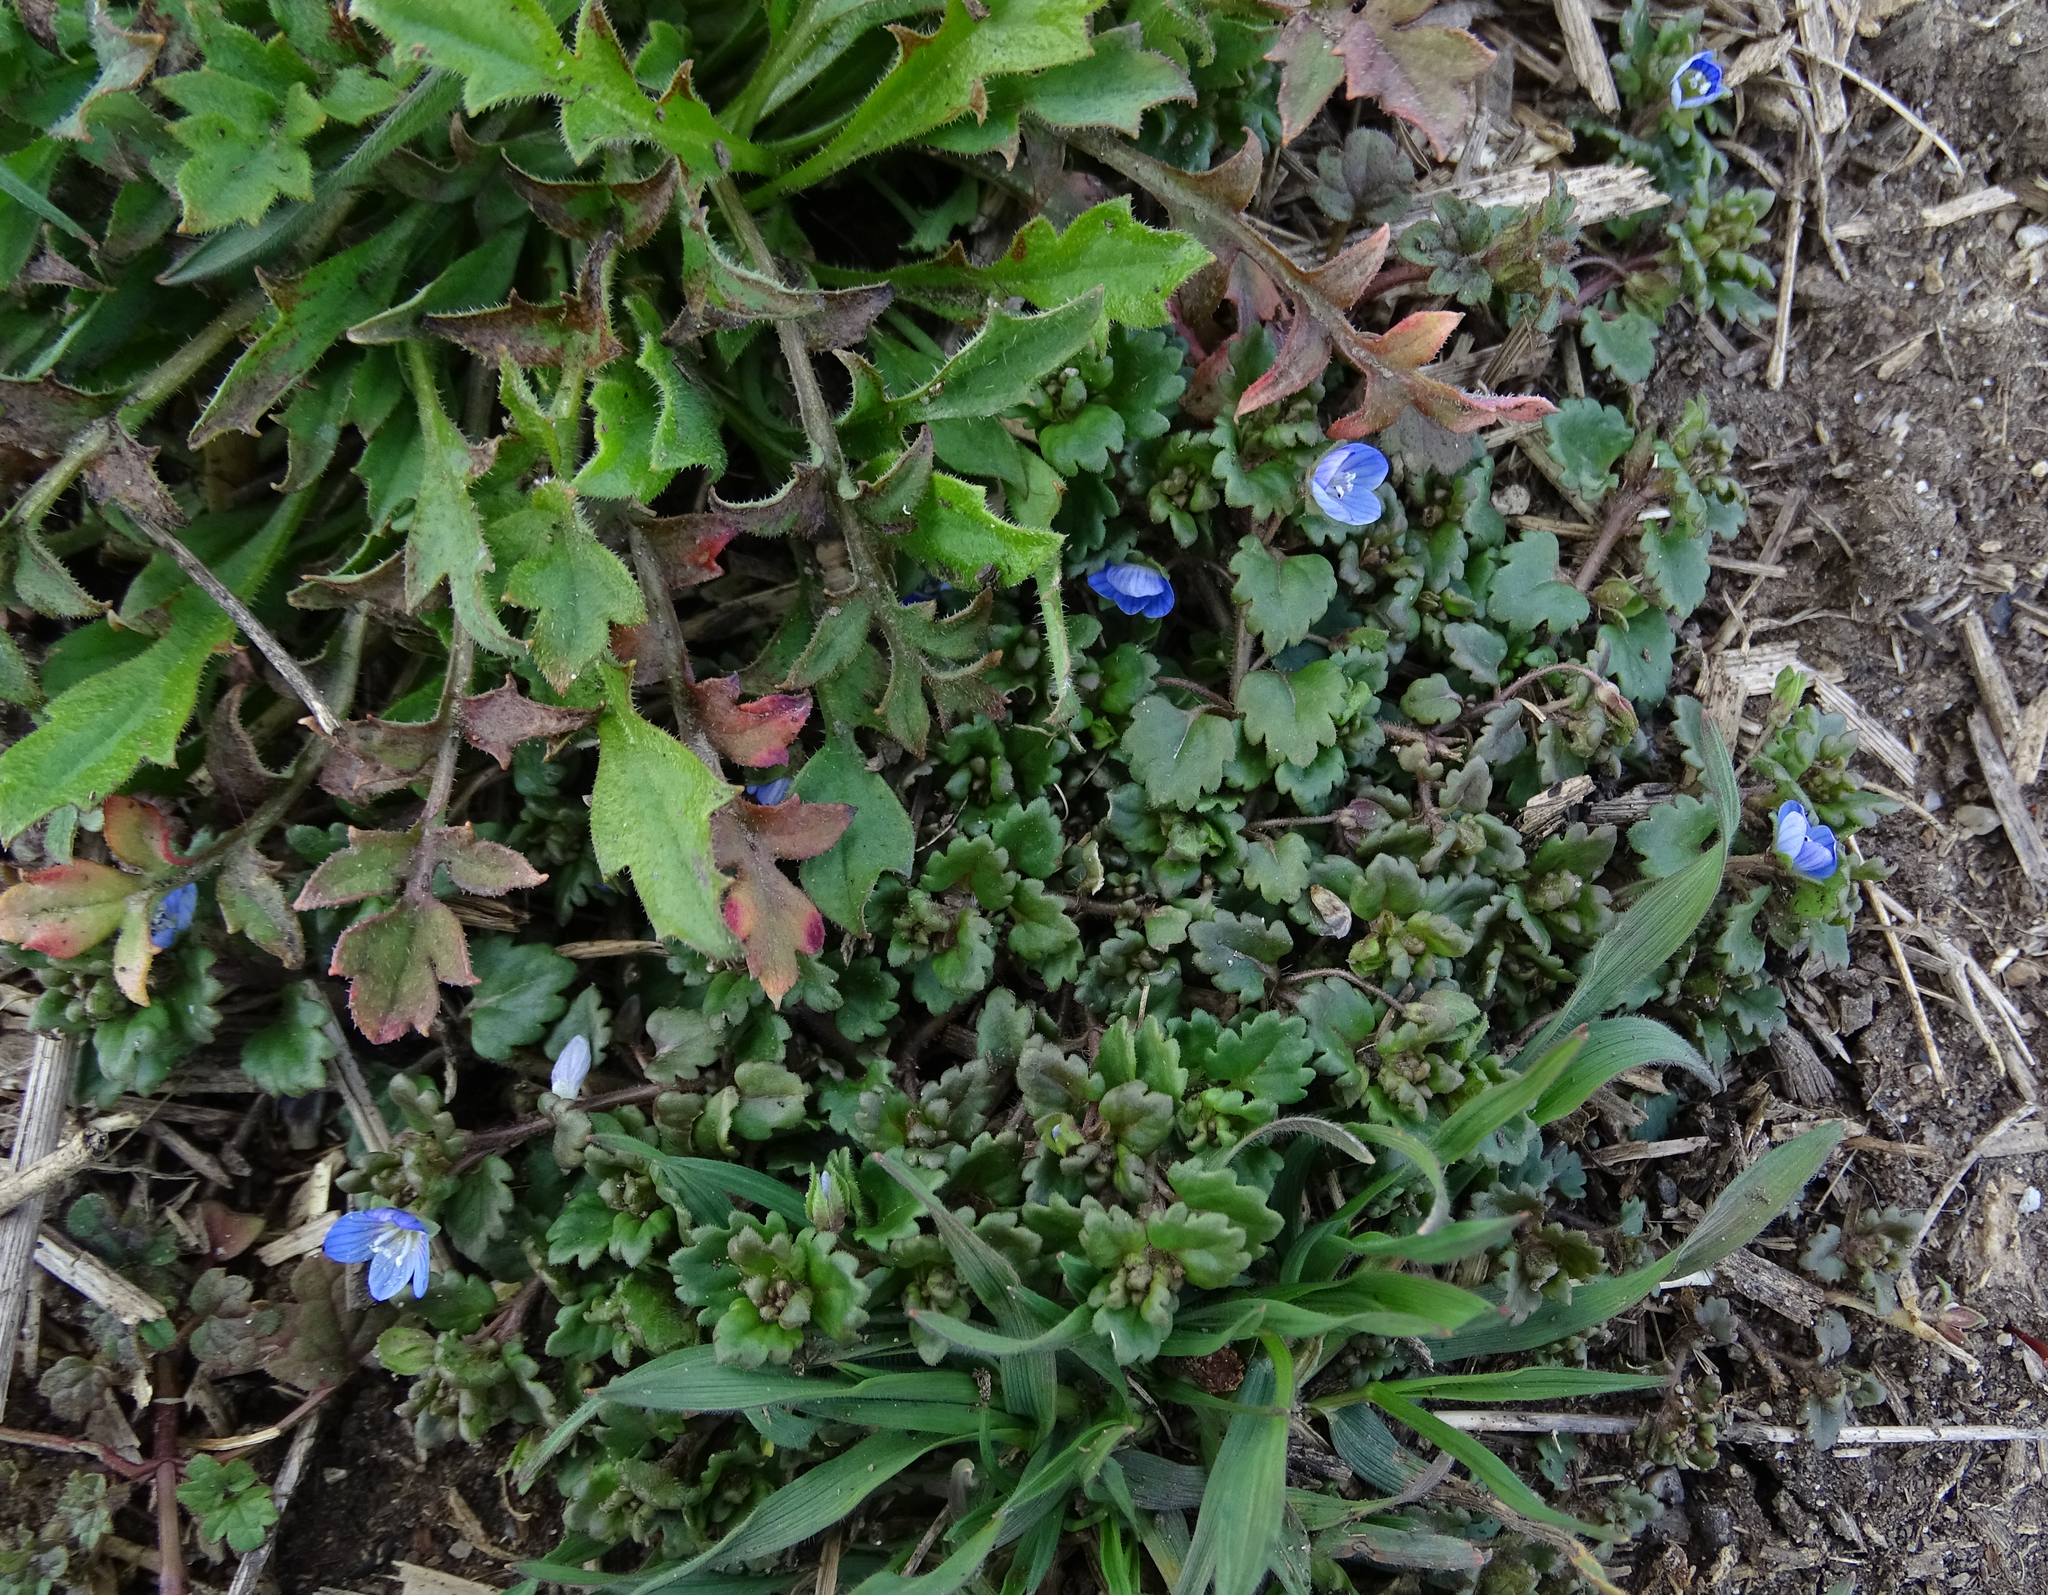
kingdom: Plantae
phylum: Tracheophyta
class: Magnoliopsida
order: Lamiales
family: Plantaginaceae
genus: Veronica
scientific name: Veronica polita
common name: Grey field-speedwell
